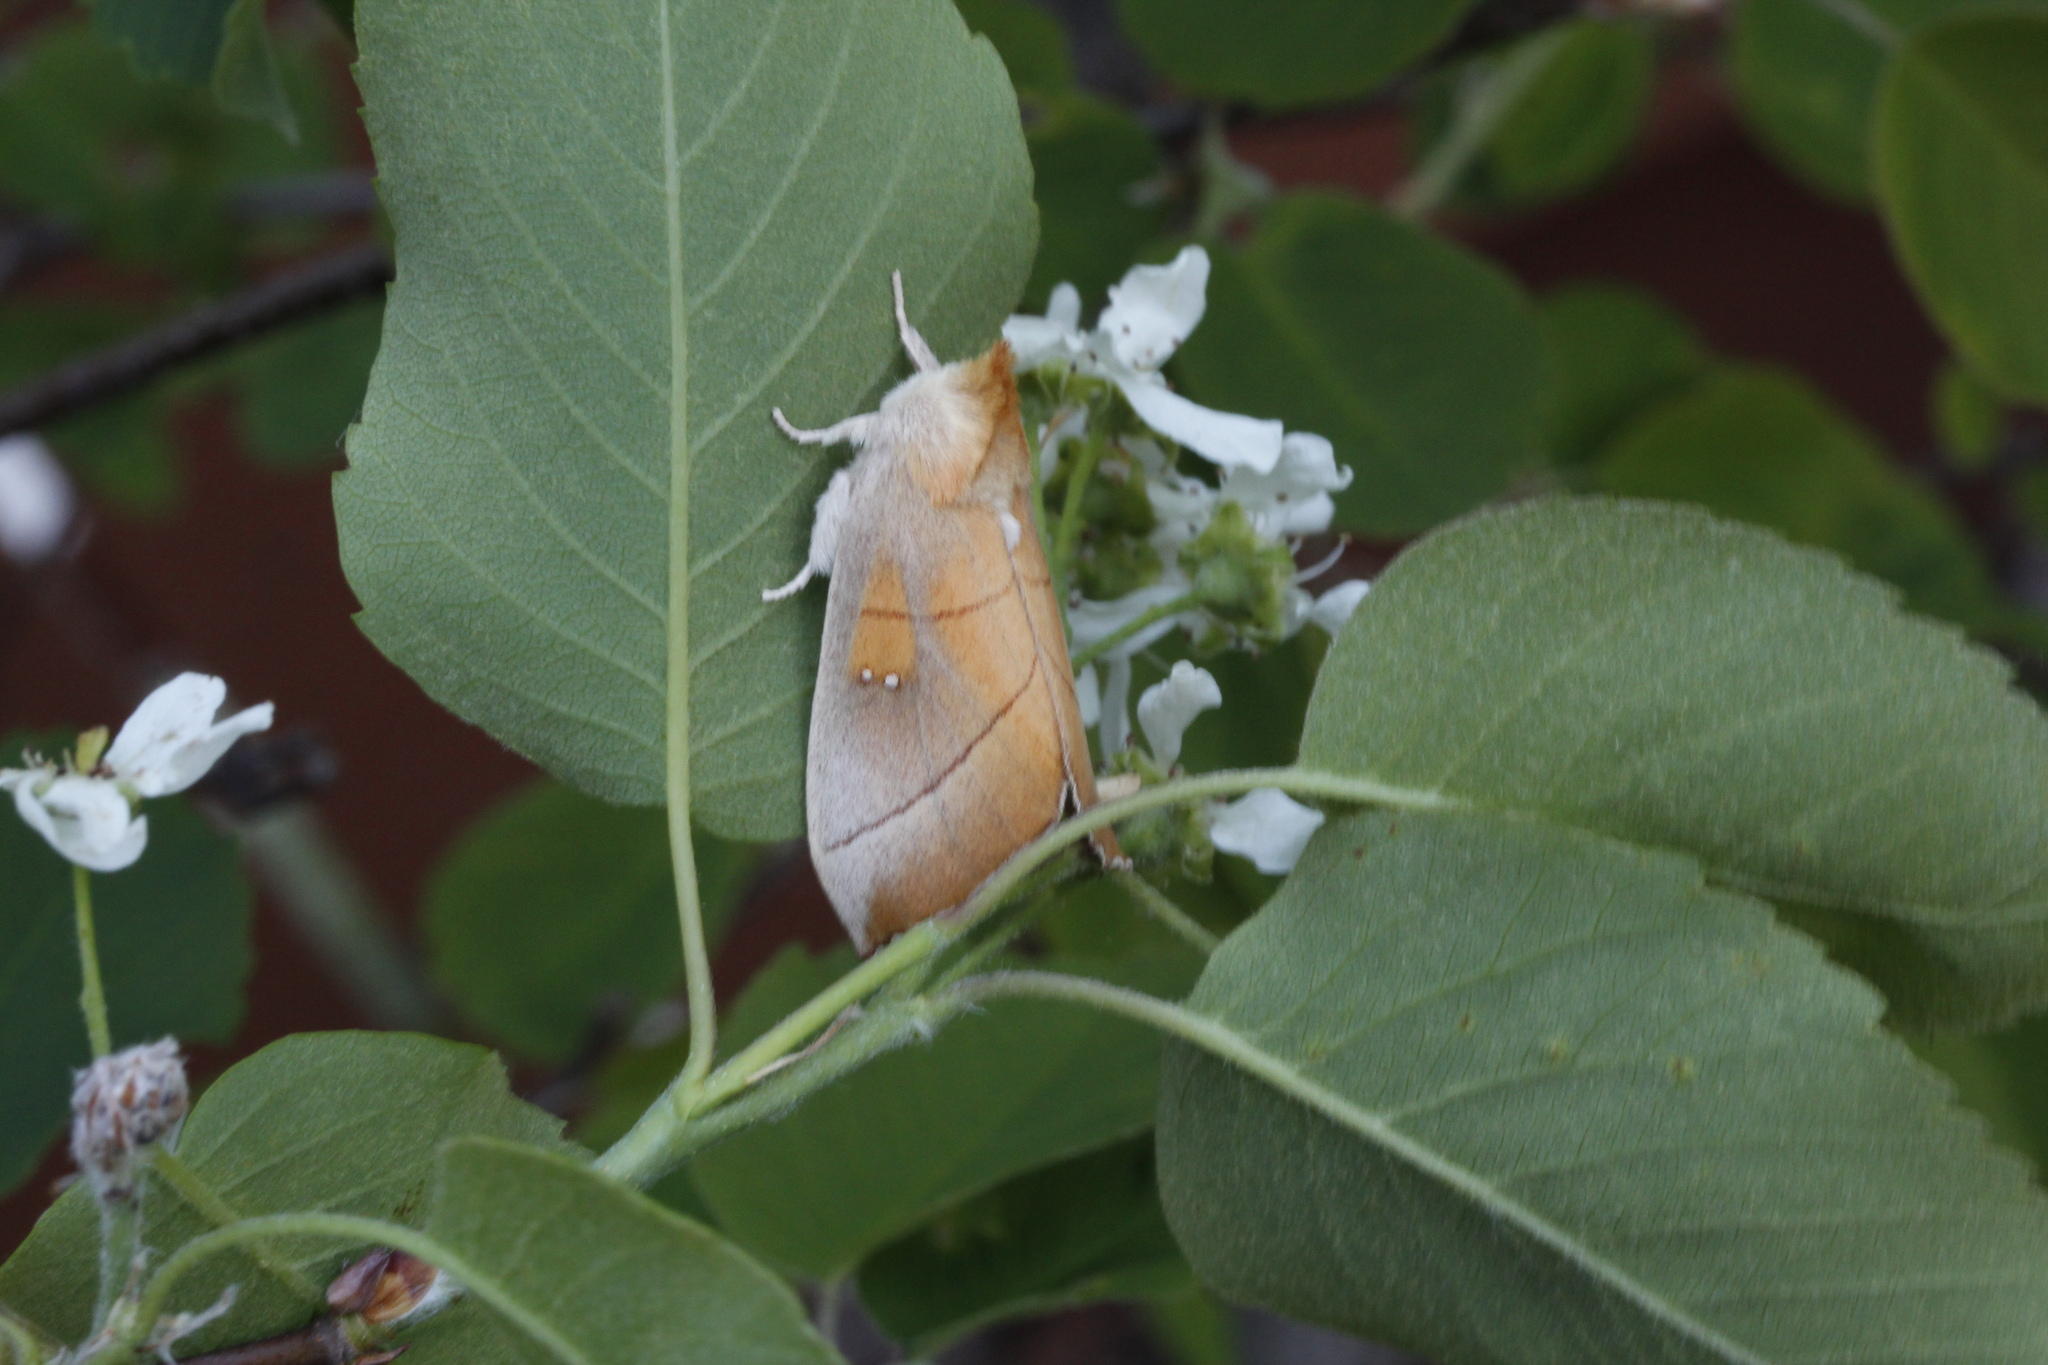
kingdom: Animalia
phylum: Arthropoda
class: Insecta
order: Lepidoptera
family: Notodontidae
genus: Nadata
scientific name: Nadata gibbosa
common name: White-dotted prominent
